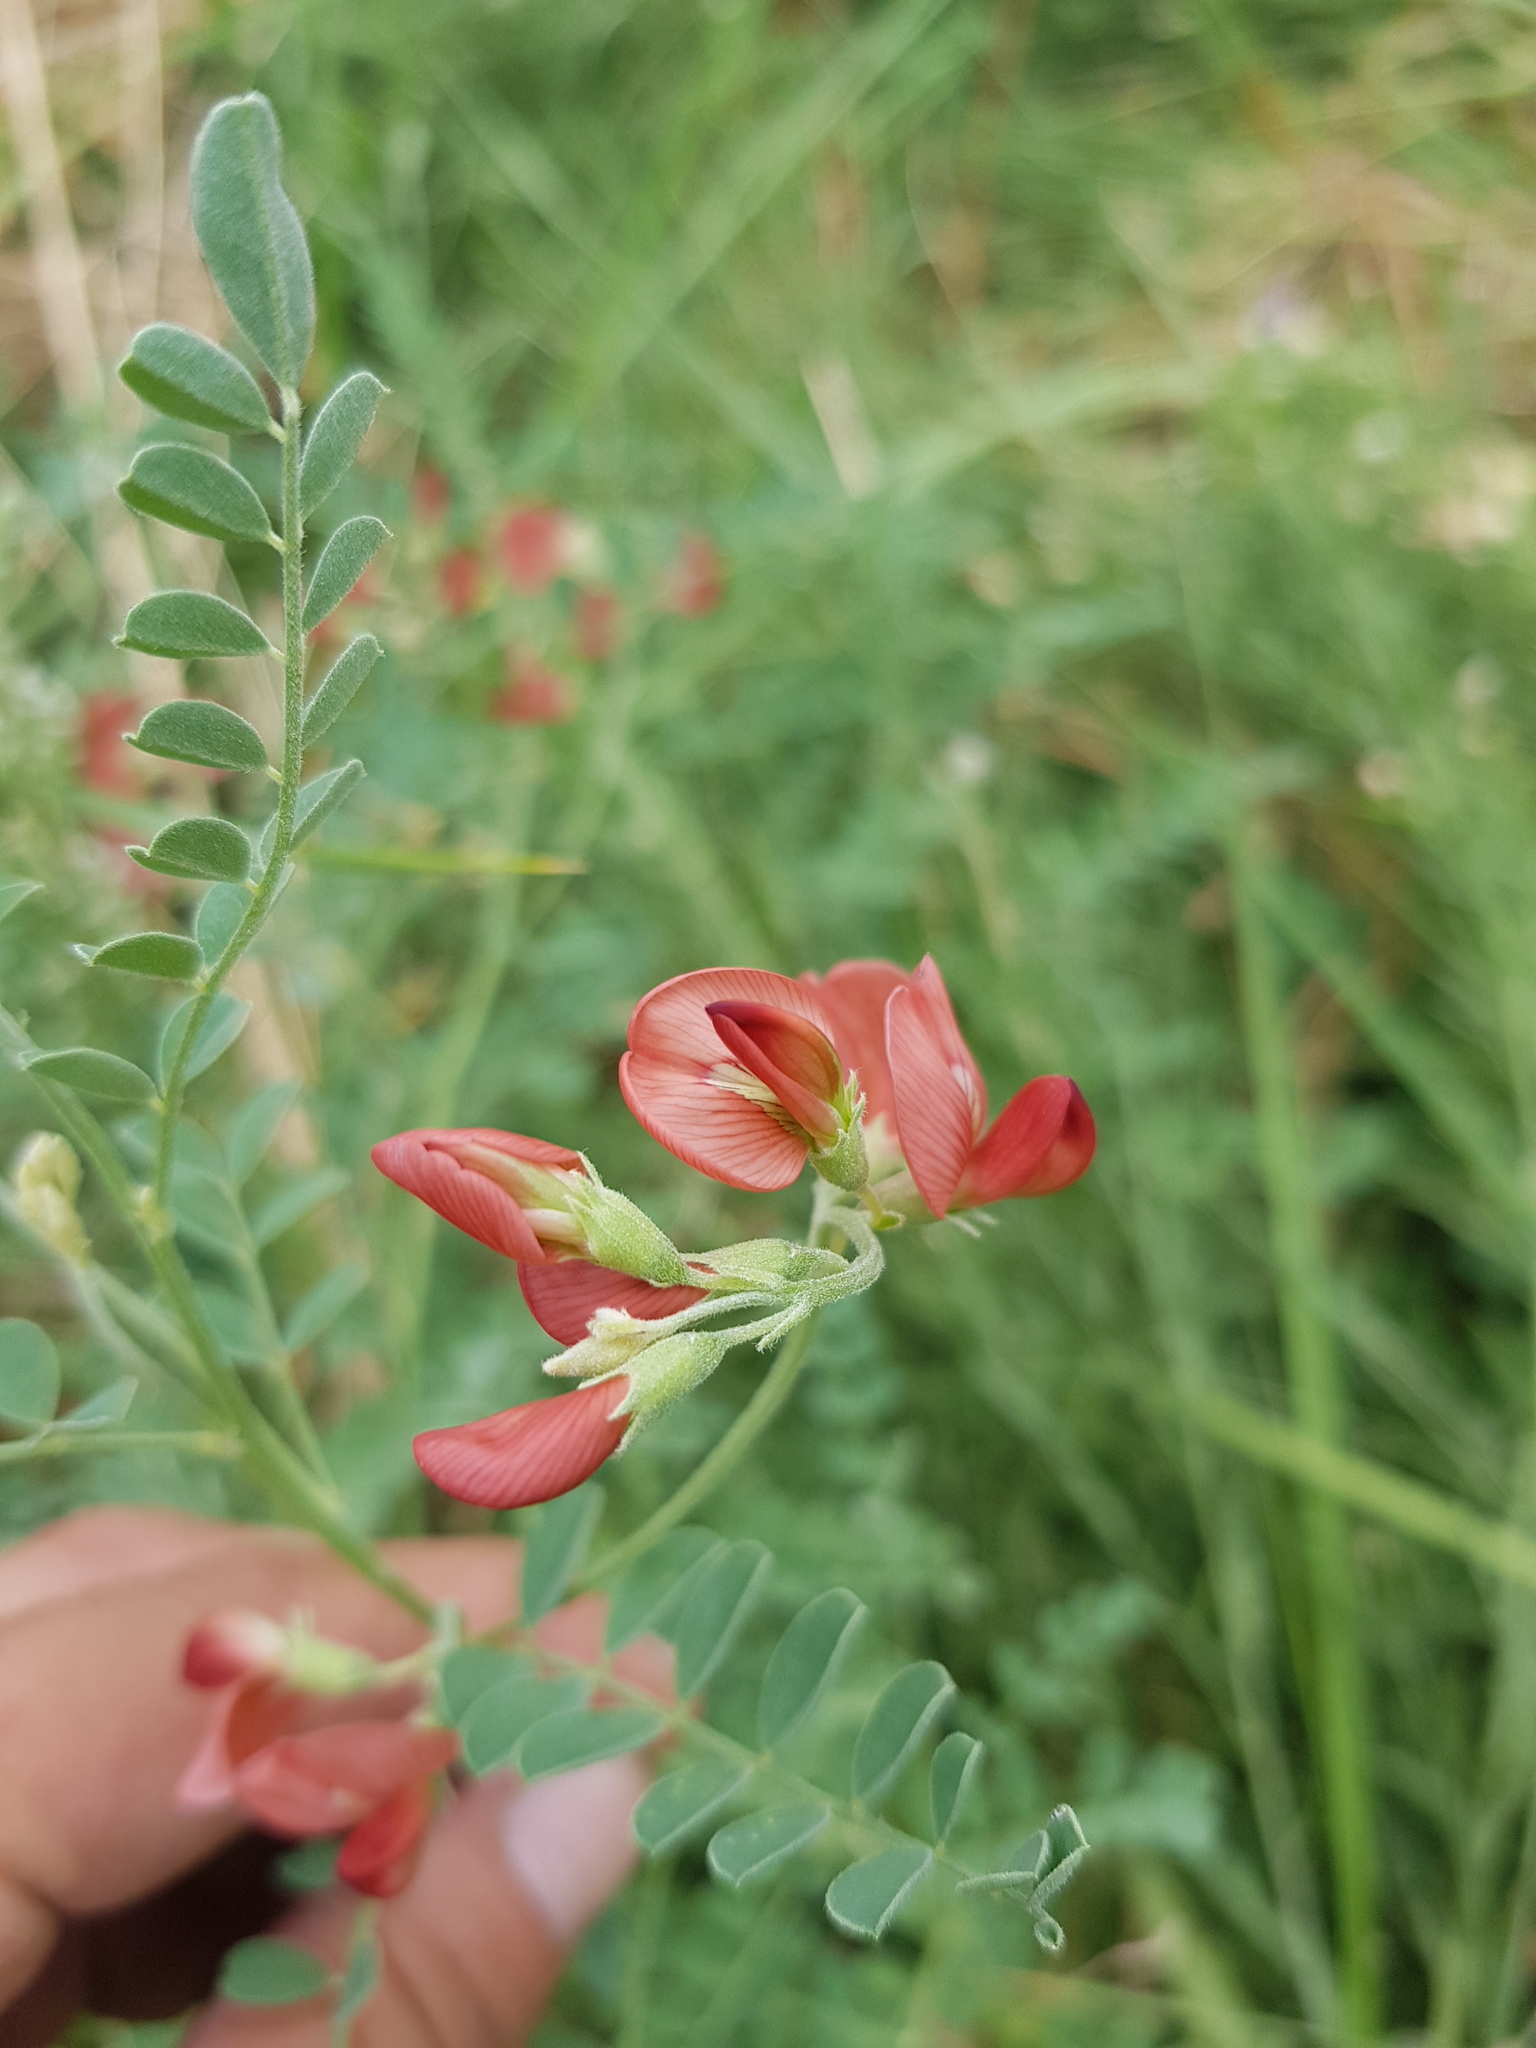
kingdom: Plantae
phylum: Tracheophyta
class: Magnoliopsida
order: Fabales
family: Fabaceae
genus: Sphaerophysa
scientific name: Sphaerophysa salsula
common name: Alkali swainsonpea
